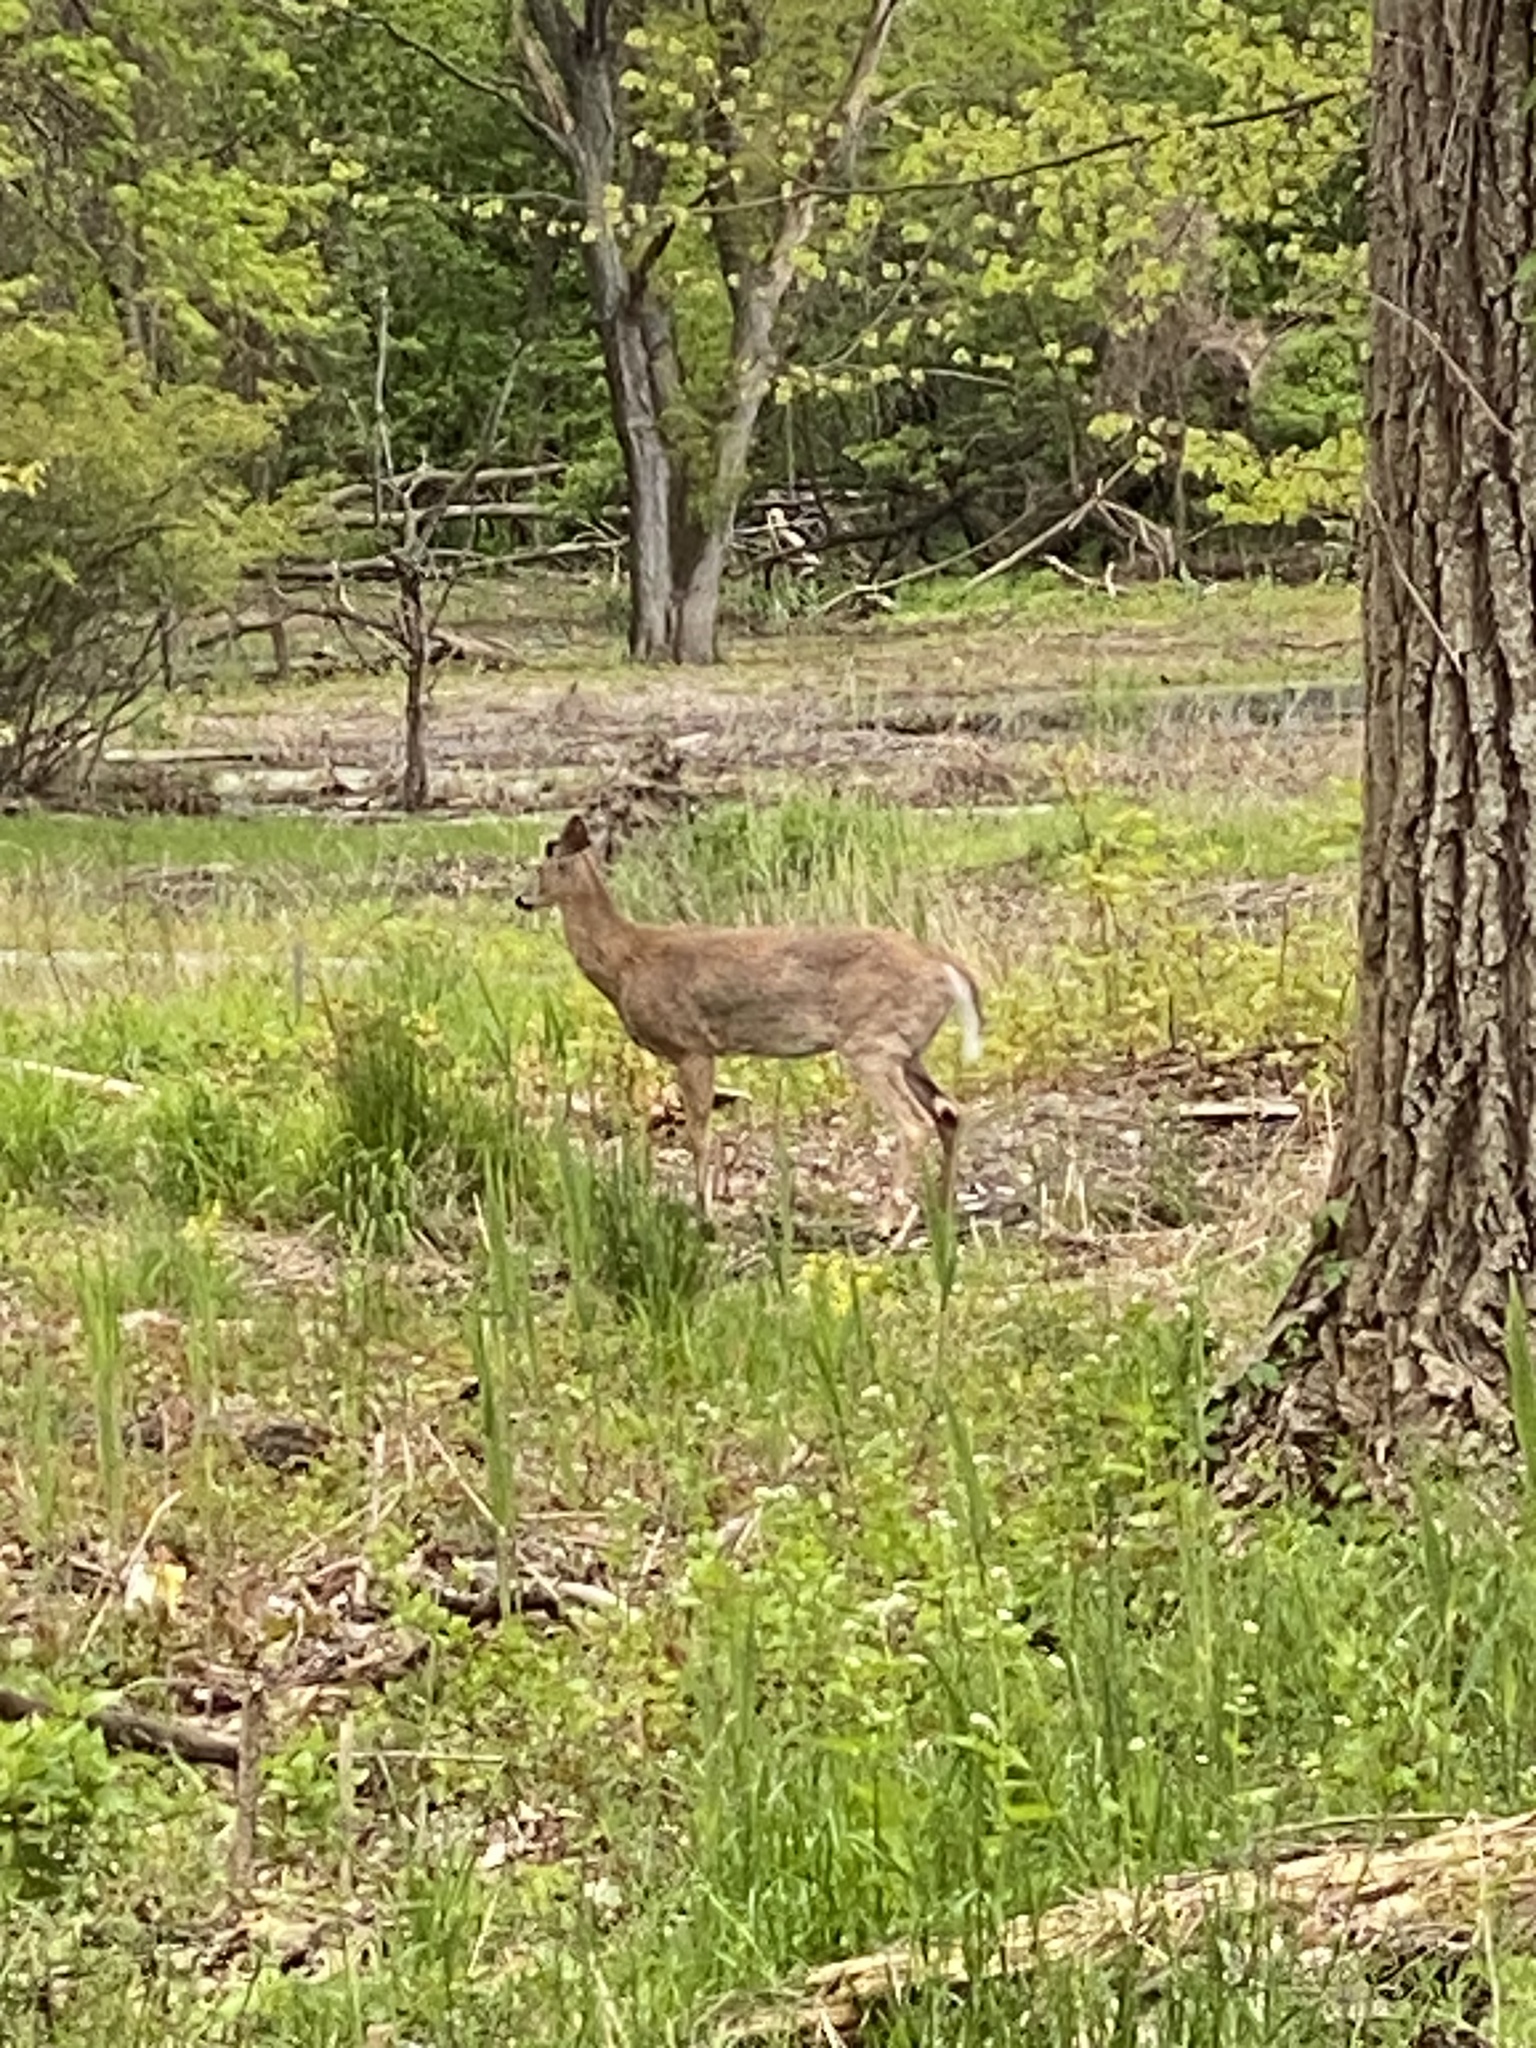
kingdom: Animalia
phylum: Chordata
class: Mammalia
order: Artiodactyla
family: Cervidae
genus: Odocoileus
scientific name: Odocoileus virginianus
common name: White-tailed deer
